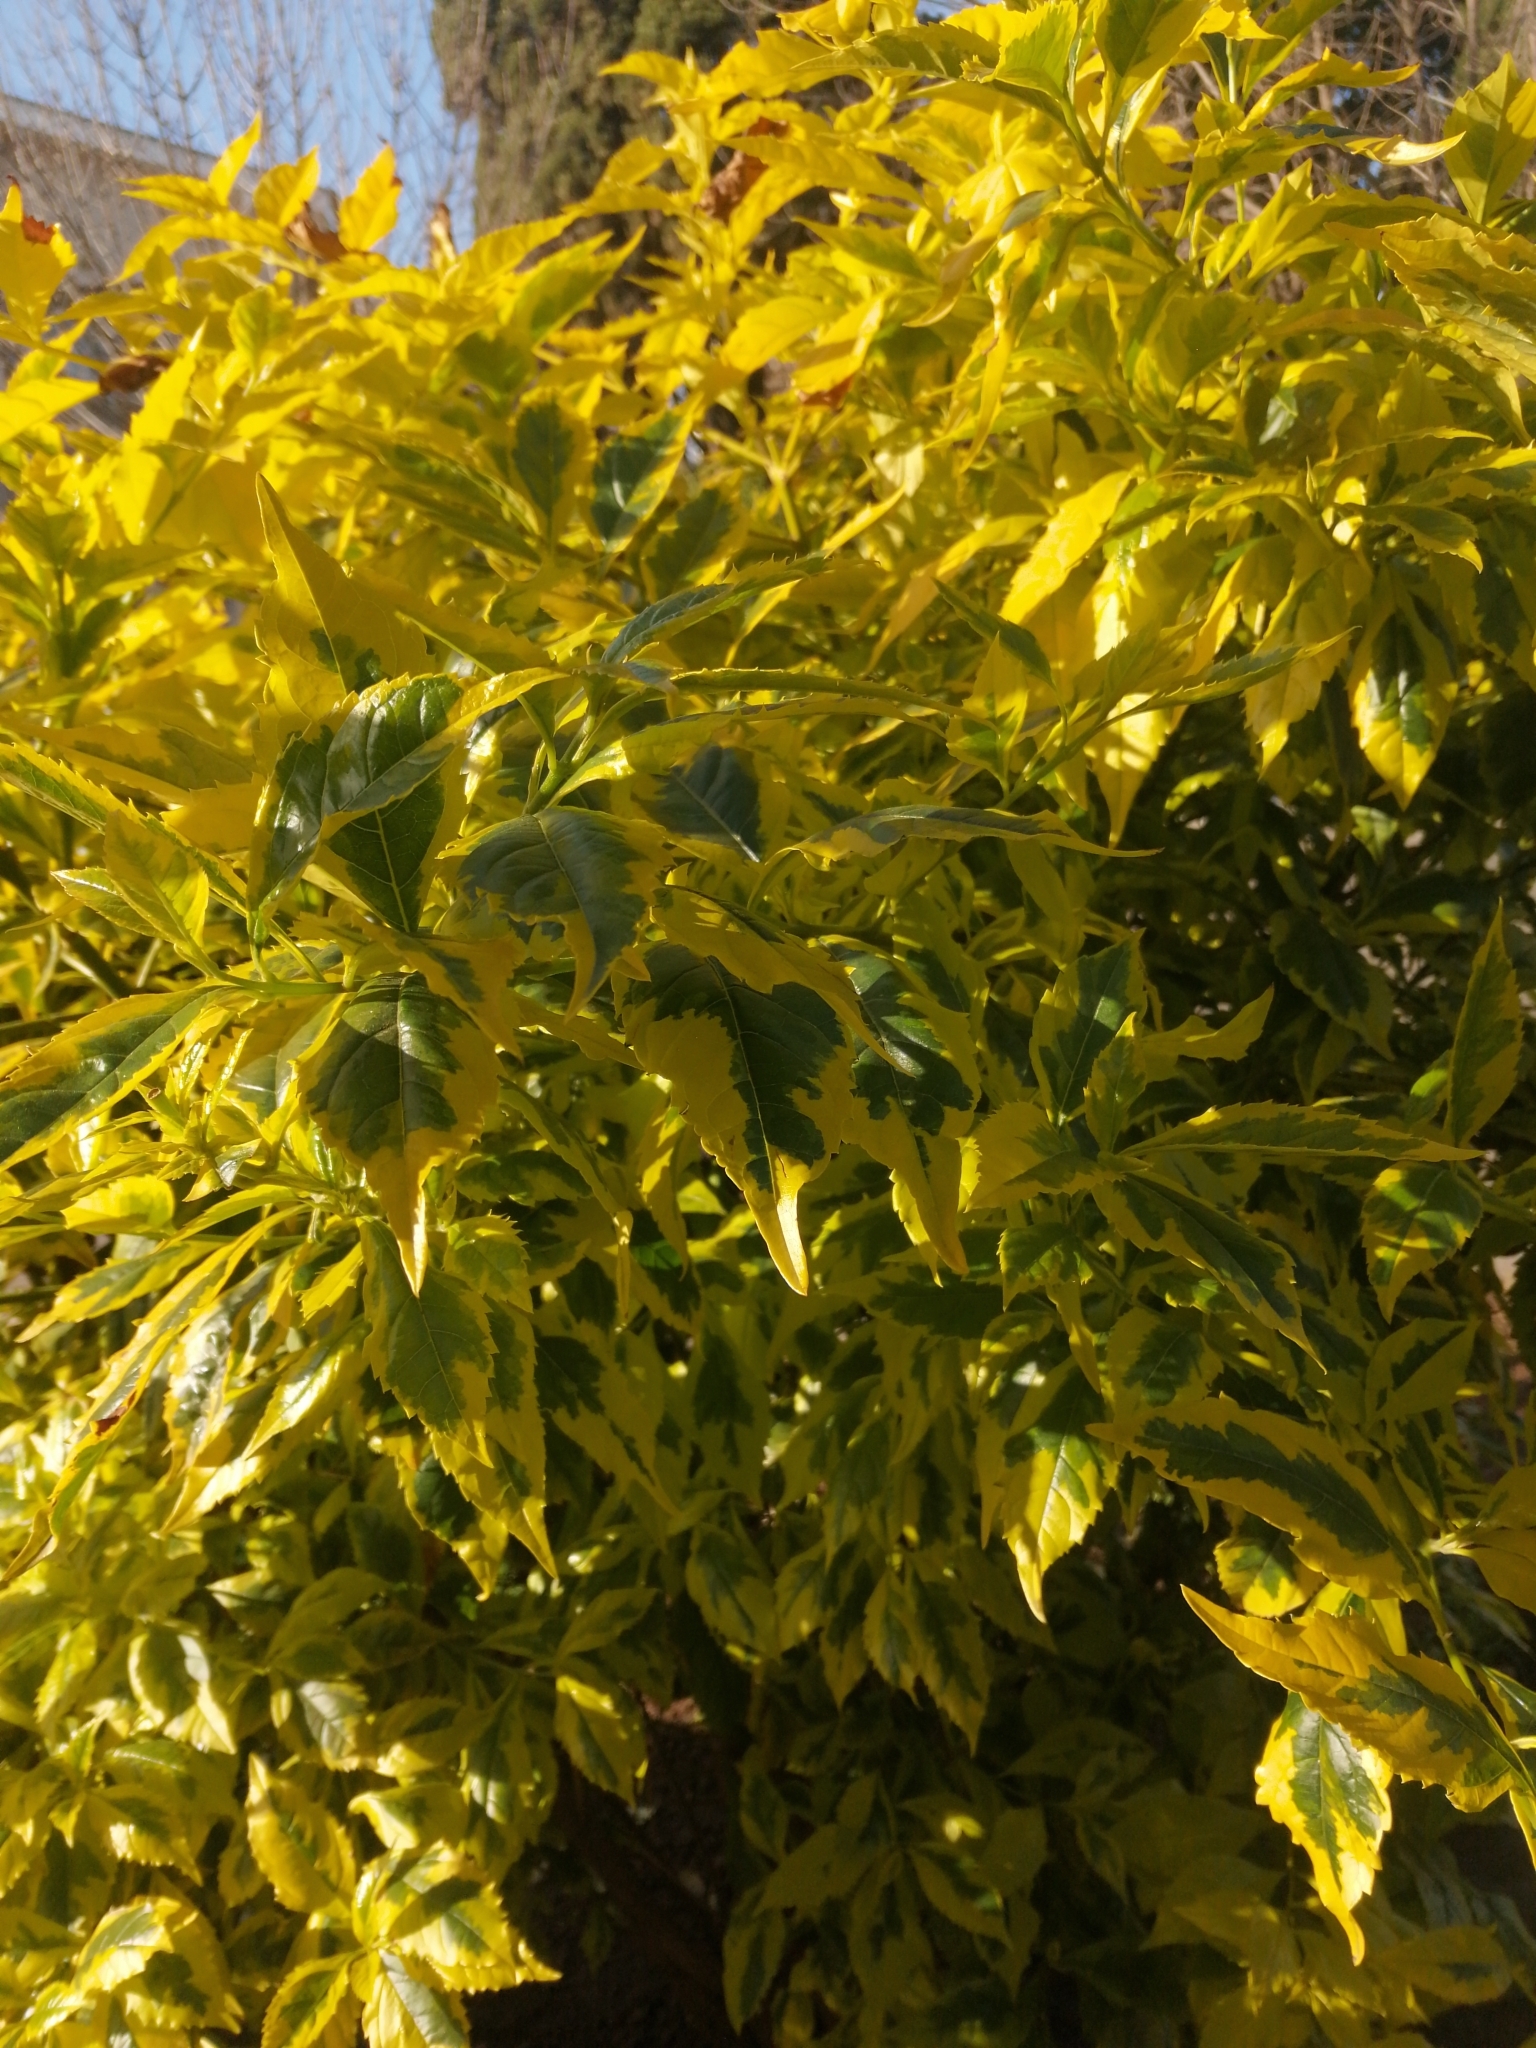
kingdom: Plantae
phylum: Tracheophyta
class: Magnoliopsida
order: Lamiales
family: Verbenaceae
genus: Duranta
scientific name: Duranta erecta
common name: Golden dewdrops
